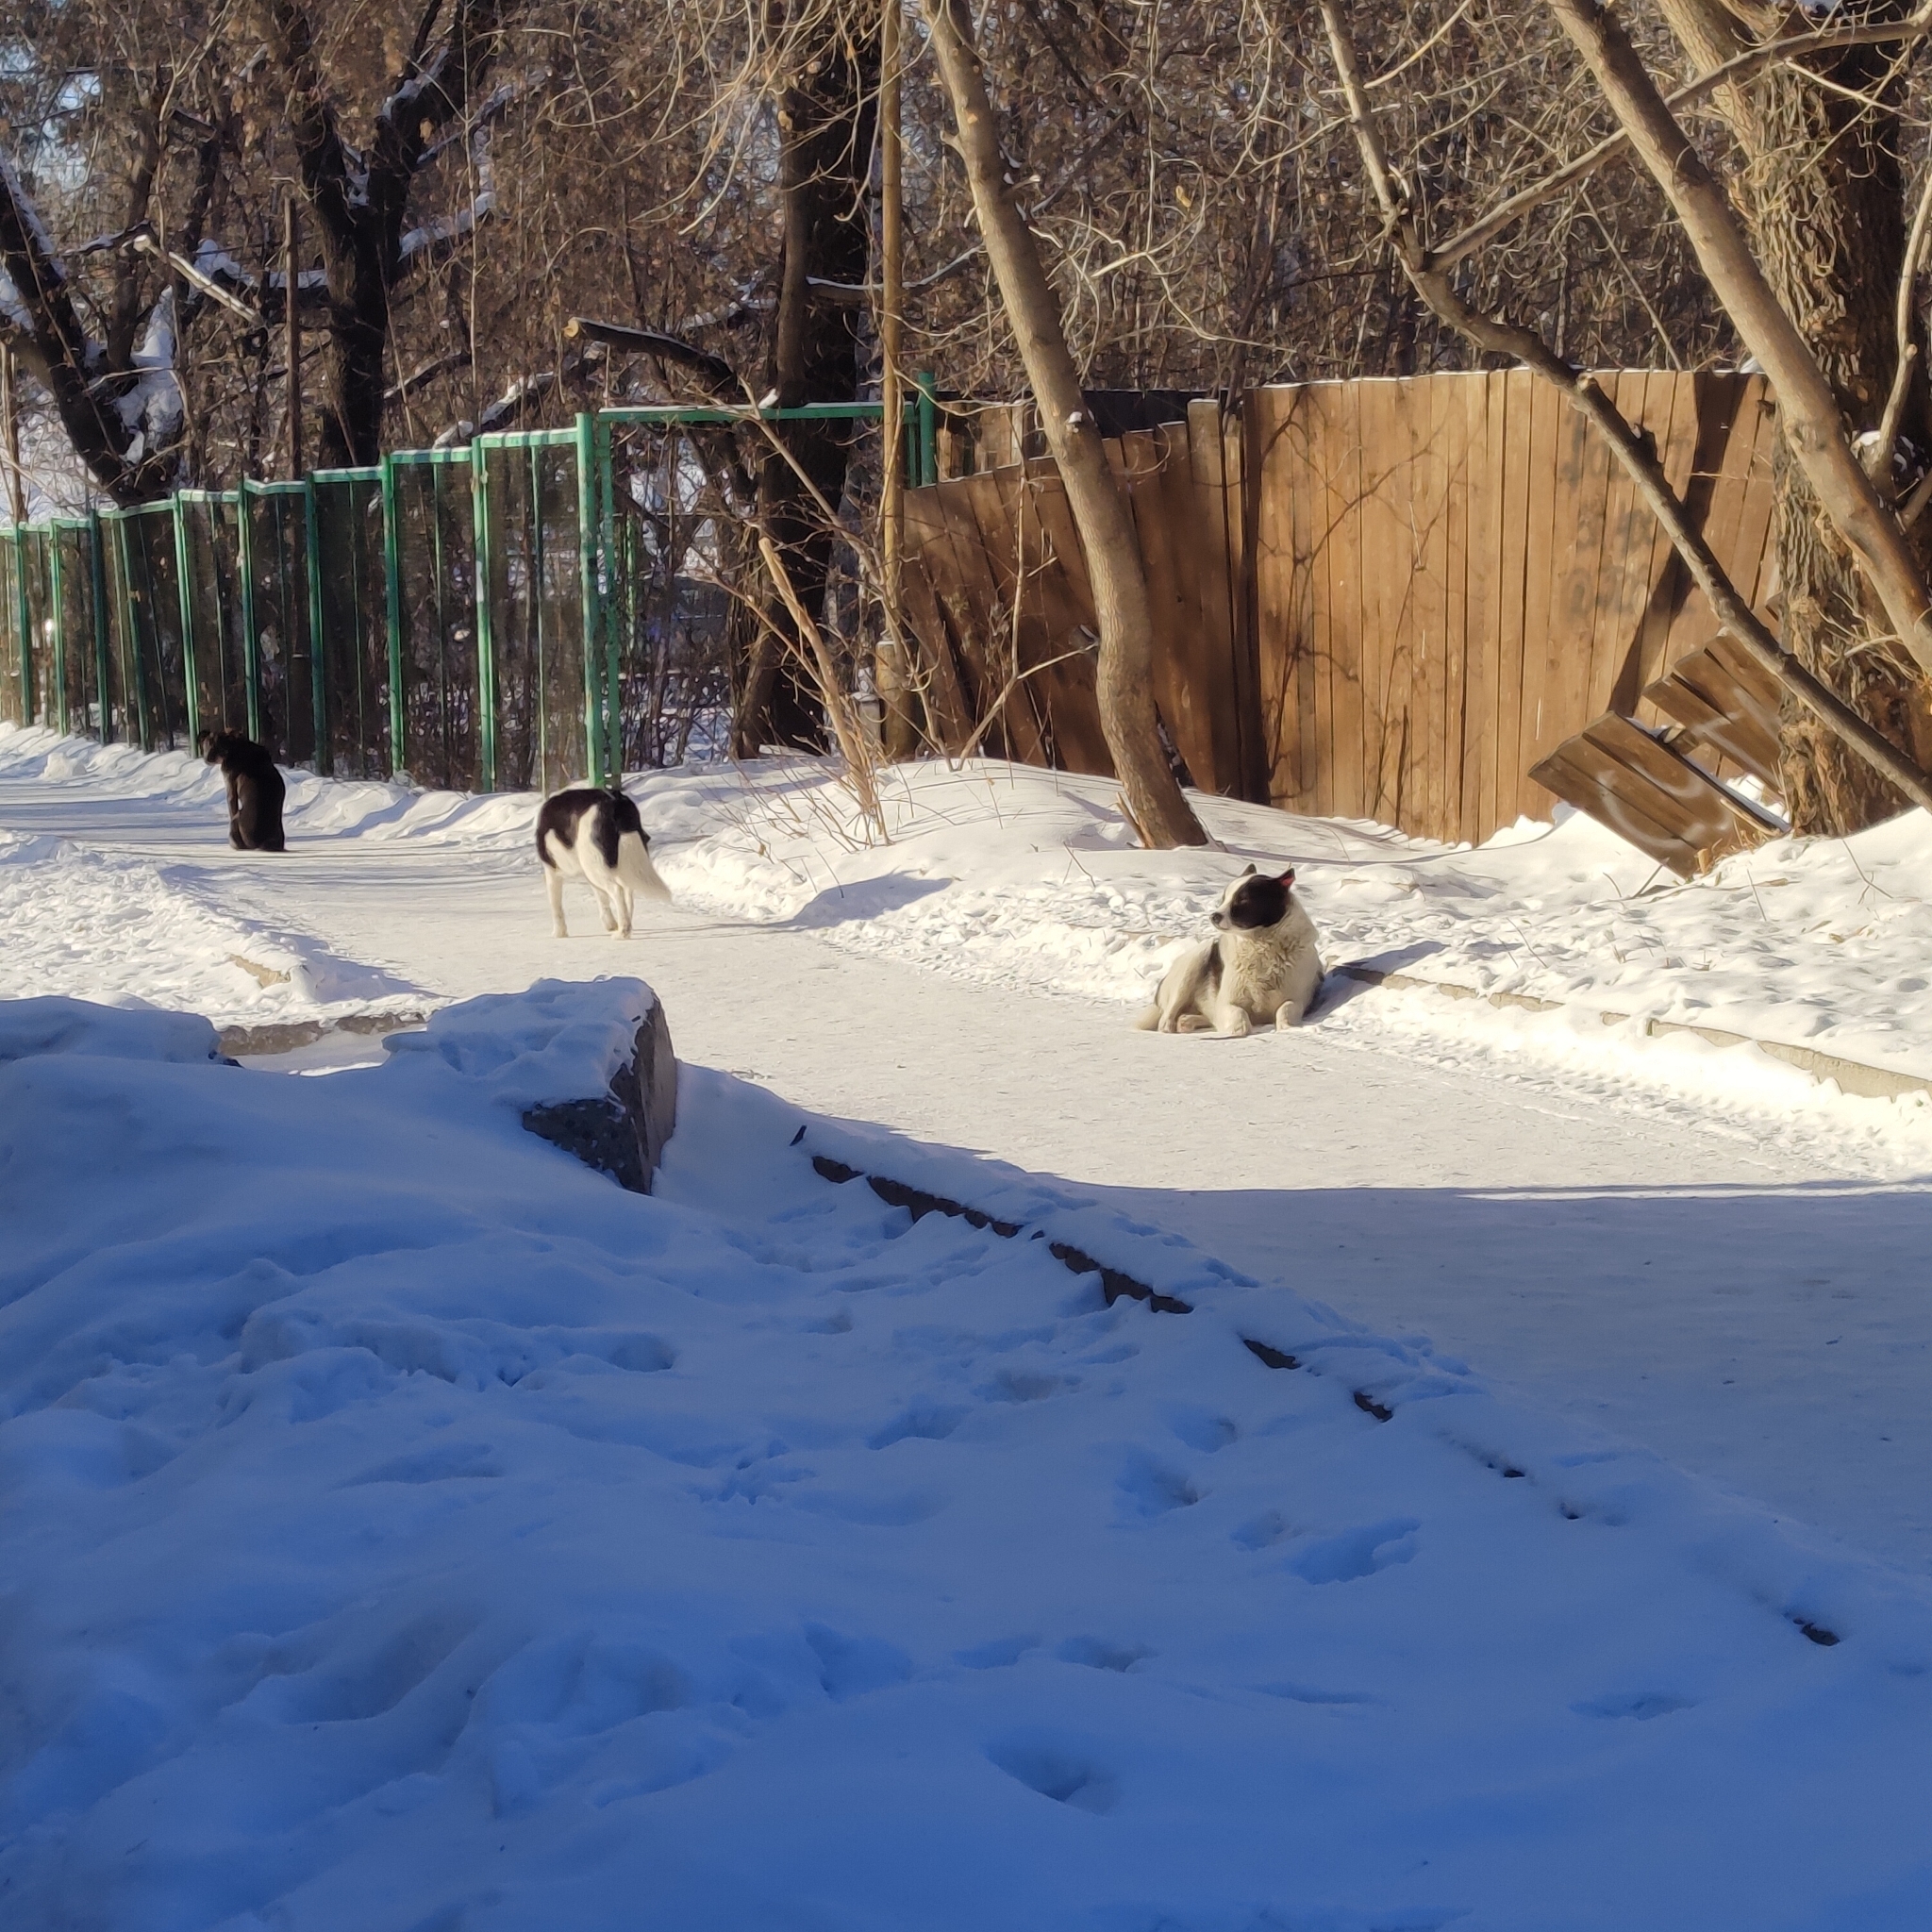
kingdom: Animalia
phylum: Chordata
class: Mammalia
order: Carnivora
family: Canidae
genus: Canis
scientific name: Canis lupus
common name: Gray wolf
